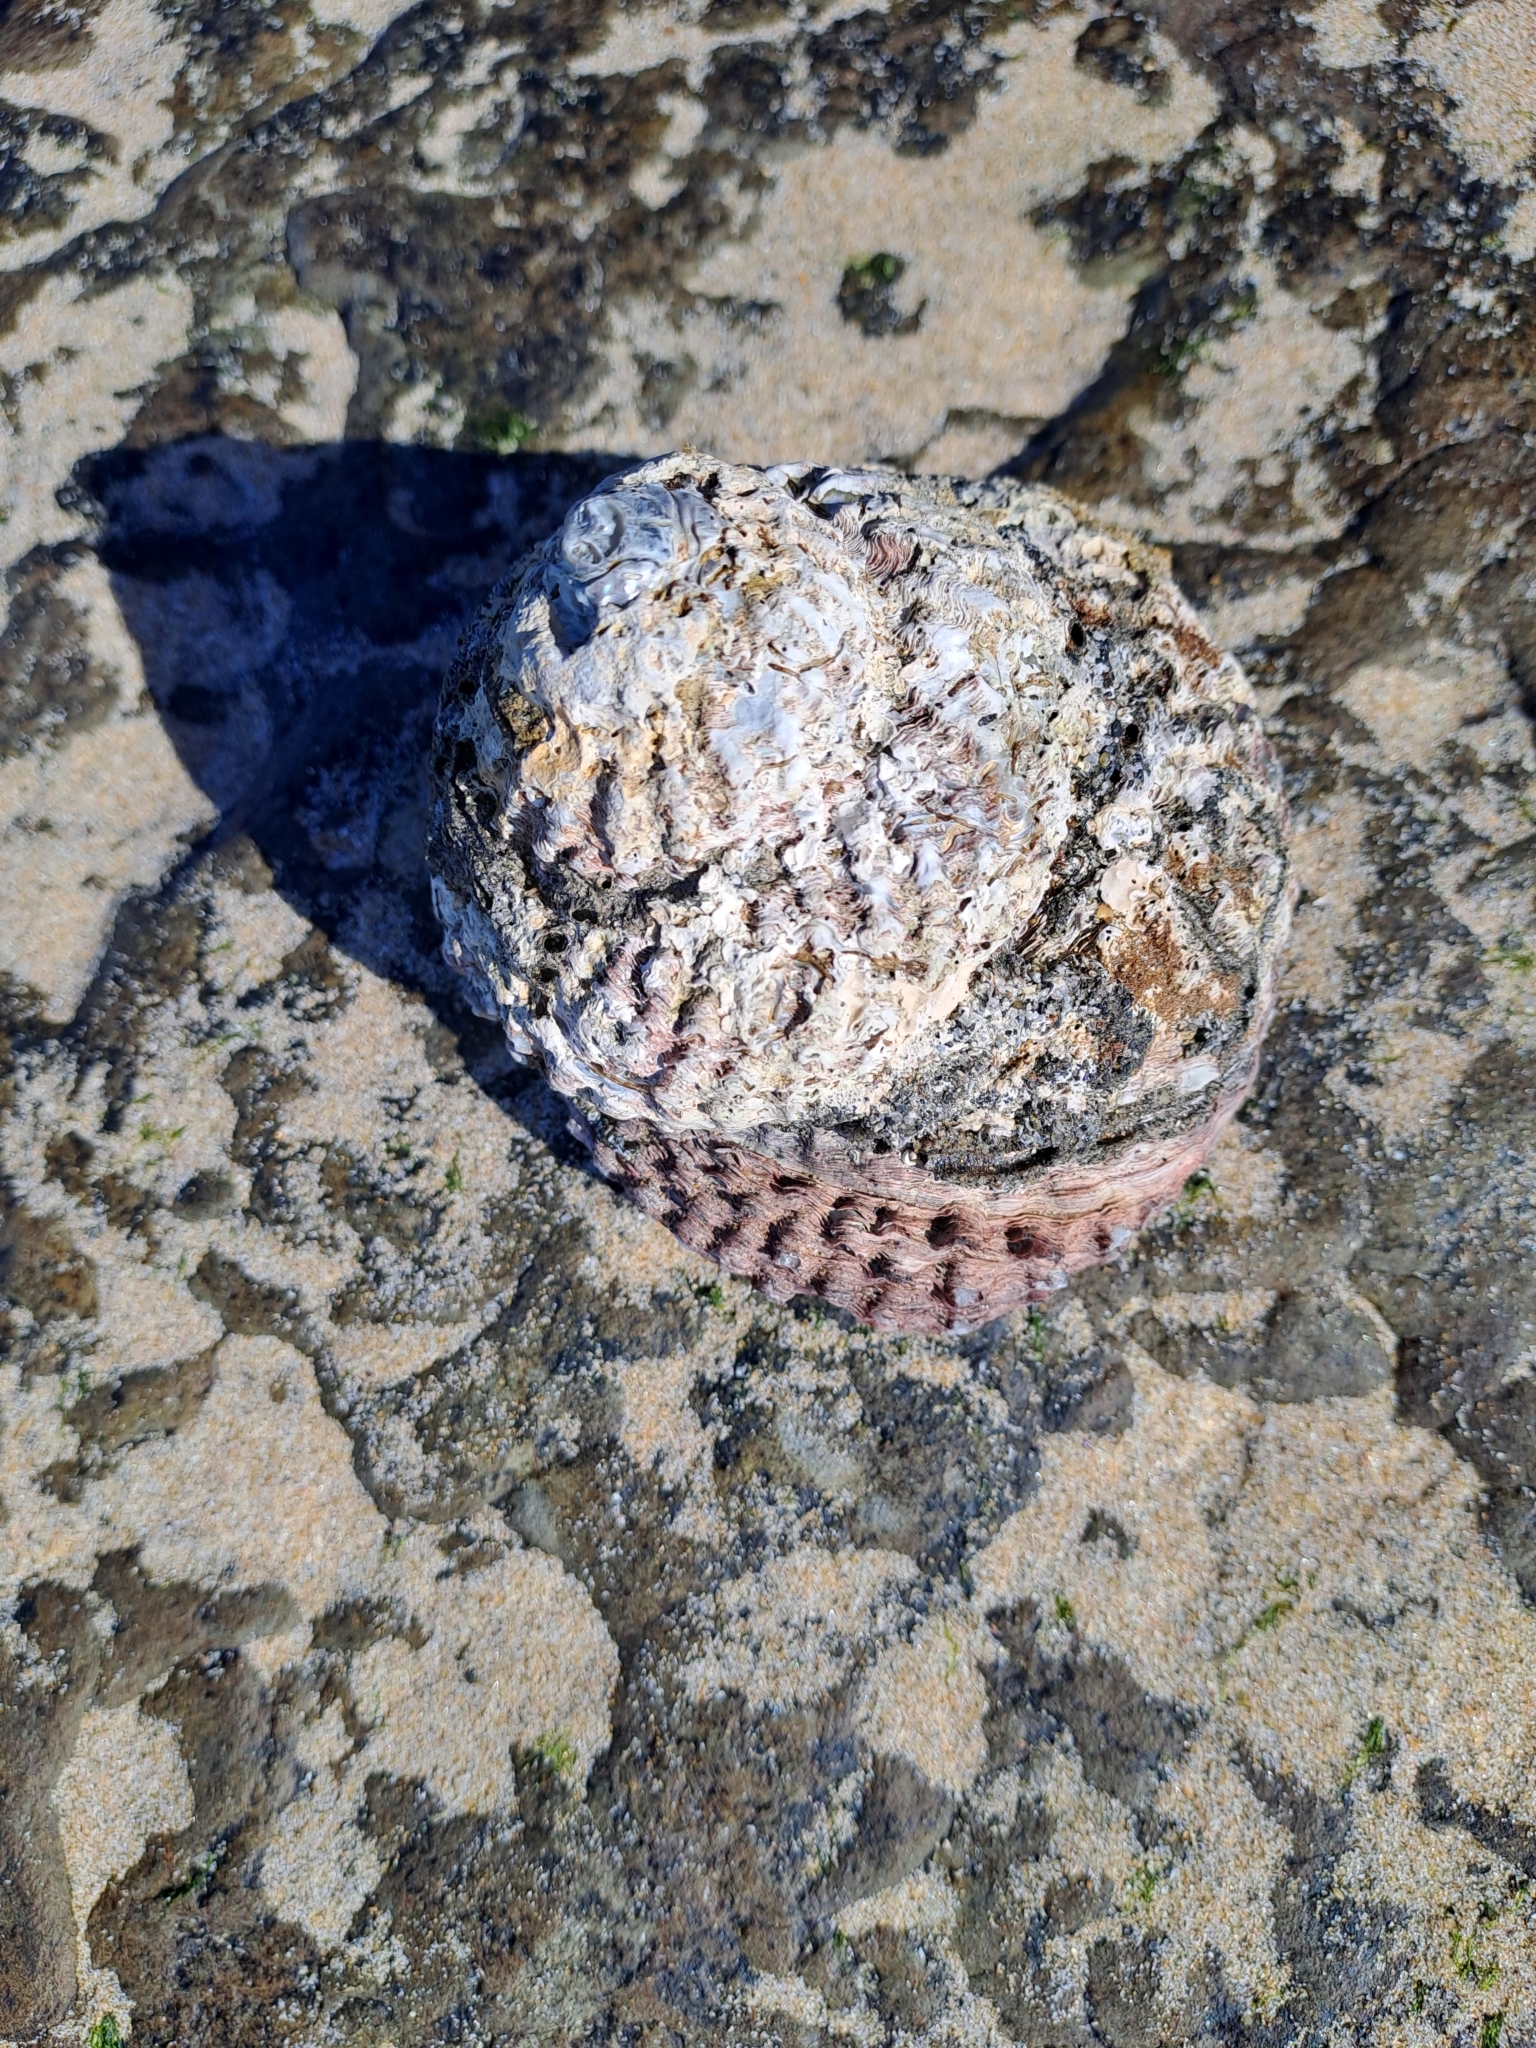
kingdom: Animalia
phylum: Mollusca
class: Gastropoda
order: Trochida
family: Turbinidae
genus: Cookia
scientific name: Cookia sulcata
